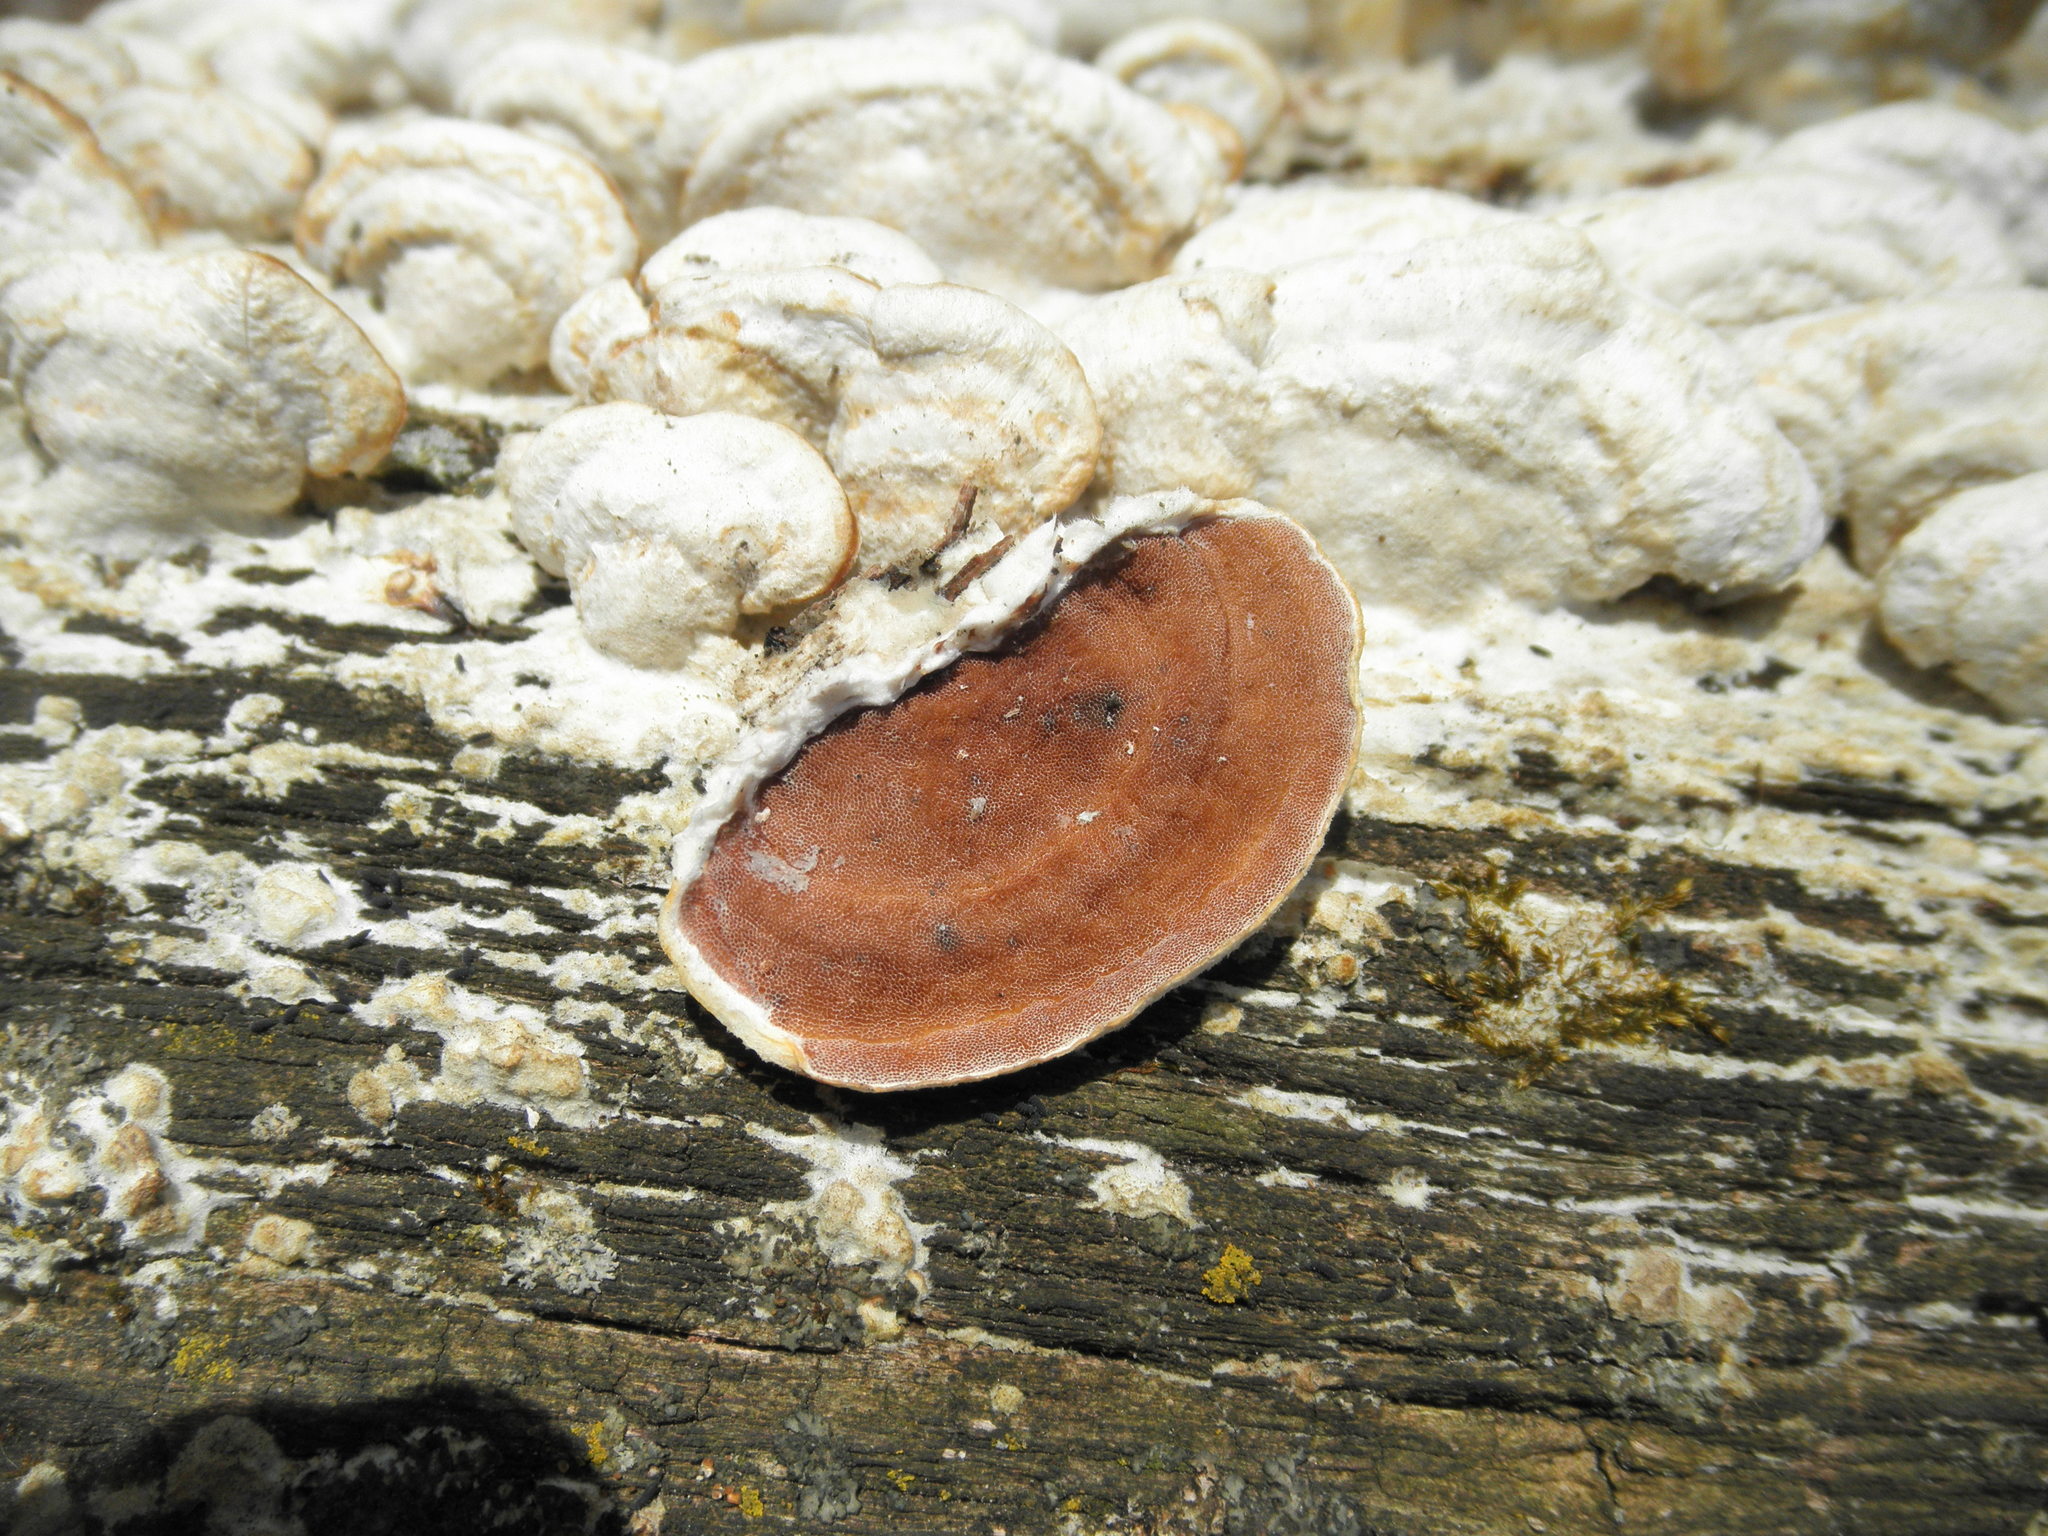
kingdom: Fungi
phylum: Basidiomycota
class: Agaricomycetes
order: Polyporales
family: Irpicaceae
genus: Vitreoporus
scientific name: Vitreoporus dichrous
